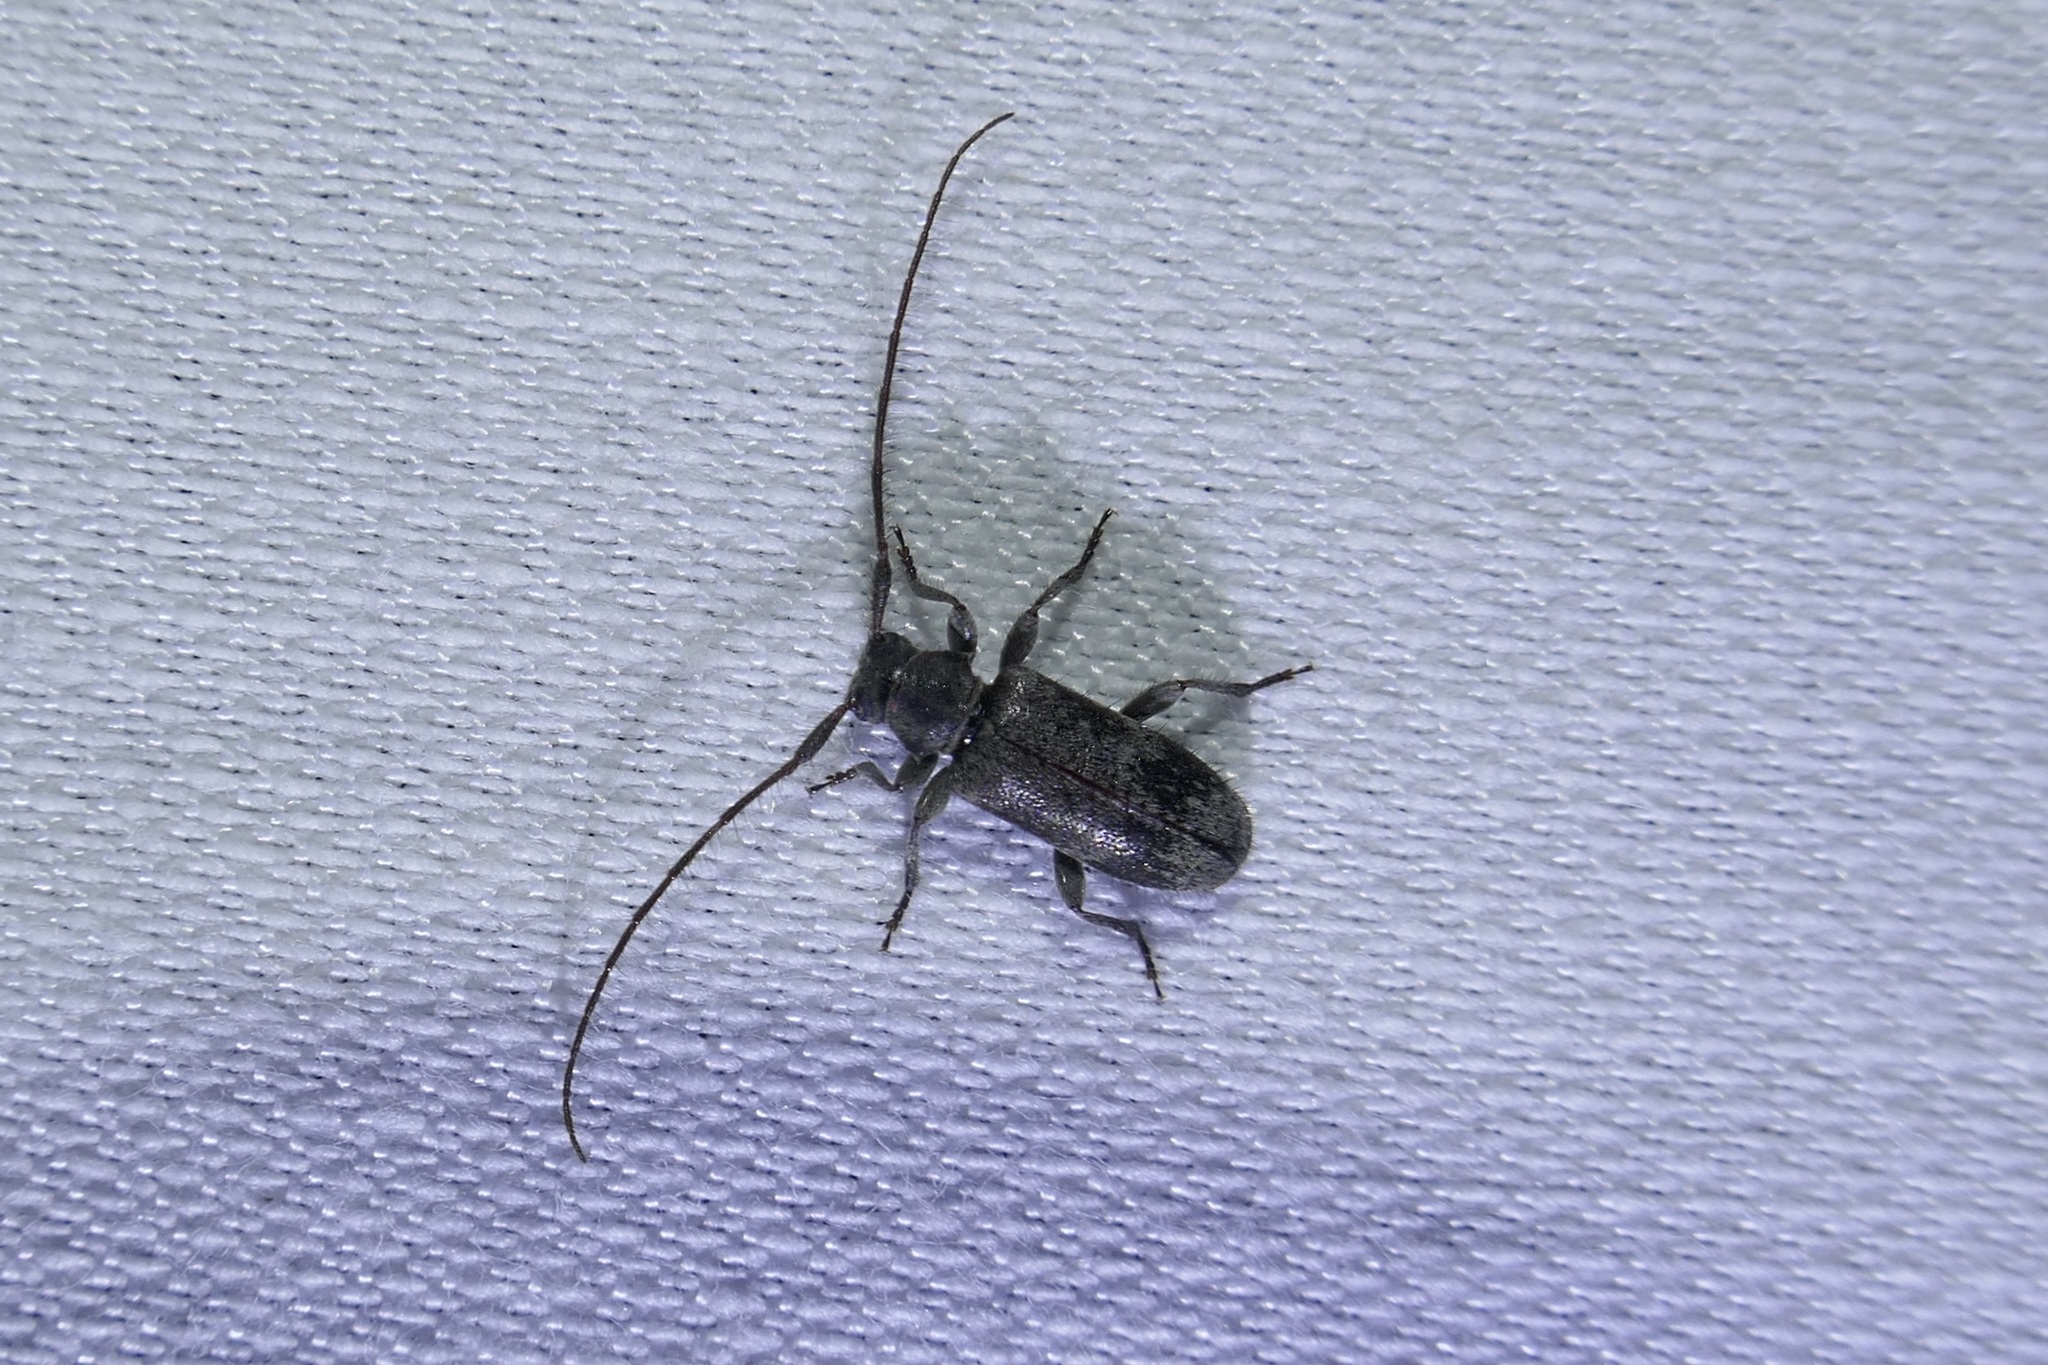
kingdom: Animalia
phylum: Arthropoda
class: Insecta
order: Coleoptera
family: Cerambycidae
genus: Exocentrus
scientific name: Exocentrus adspersus
